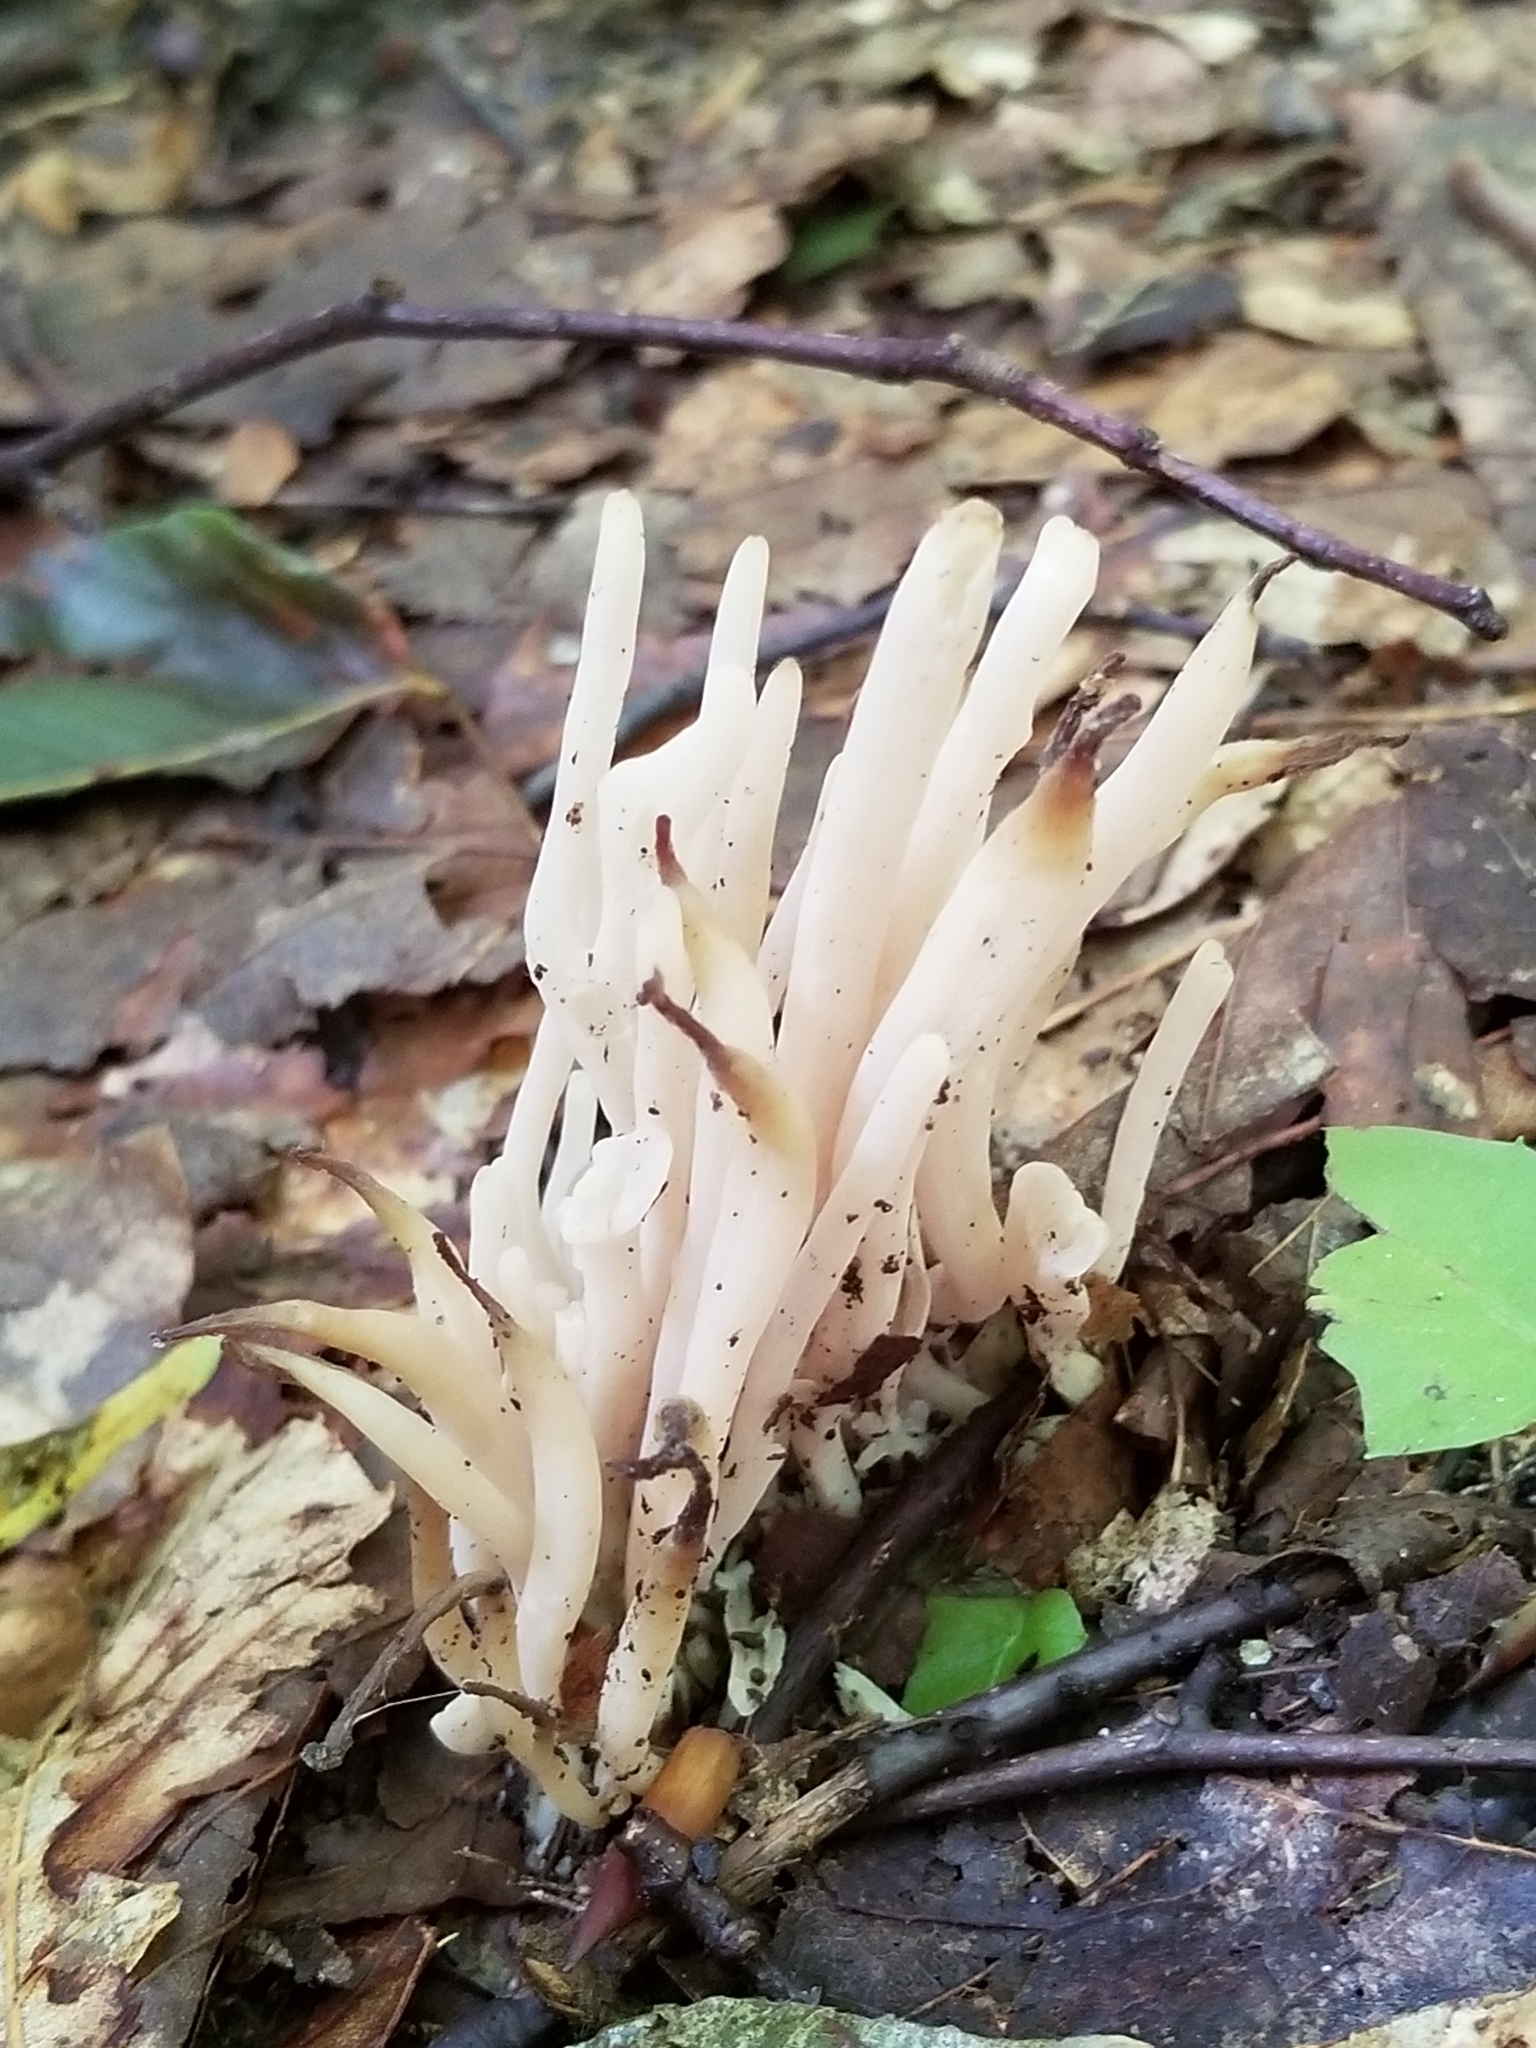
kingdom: Fungi
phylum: Basidiomycota
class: Agaricomycetes
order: Agaricales
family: Clavariaceae
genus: Clavaria
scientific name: Clavaria fragilis
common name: White spindles
